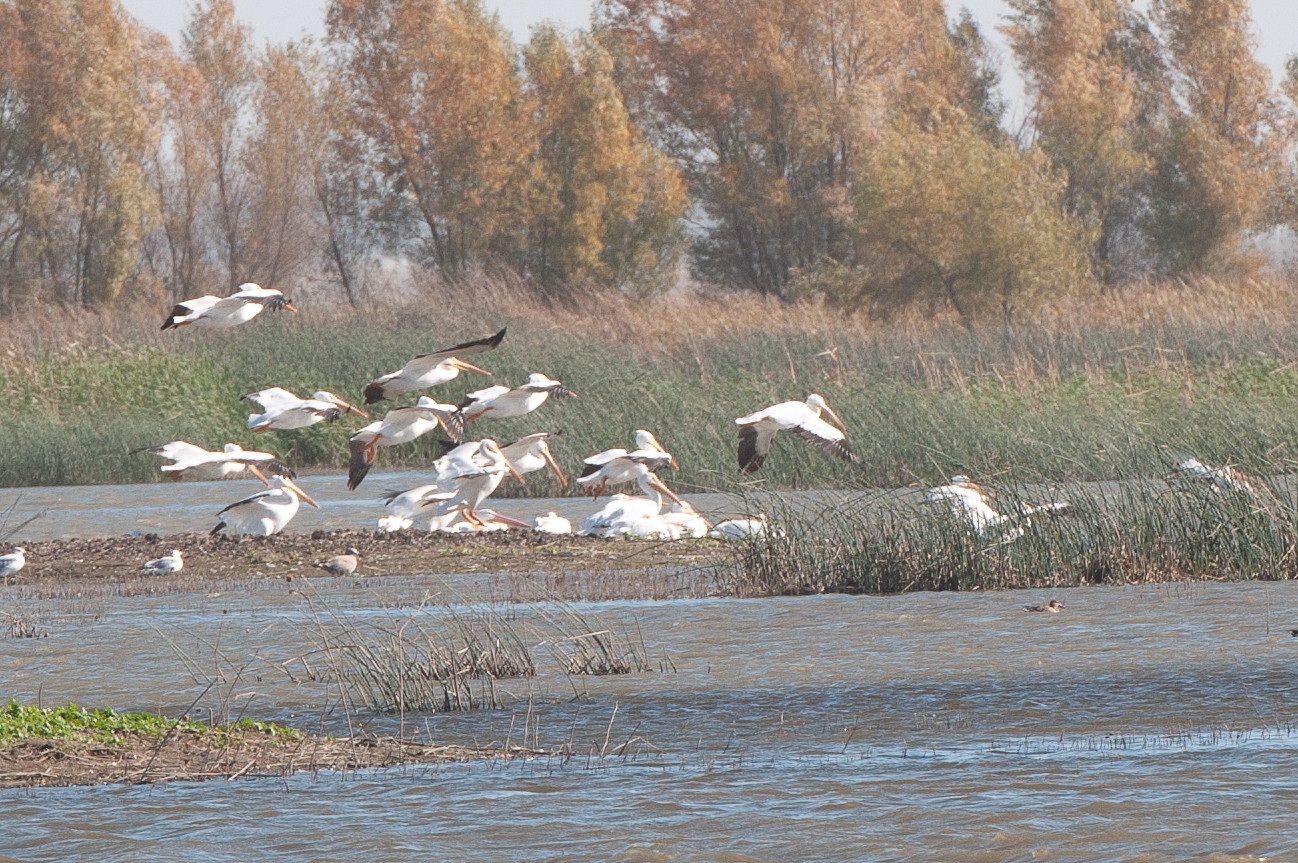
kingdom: Animalia
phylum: Chordata
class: Aves
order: Pelecaniformes
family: Pelecanidae
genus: Pelecanus
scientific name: Pelecanus erythrorhynchos
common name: American white pelican
